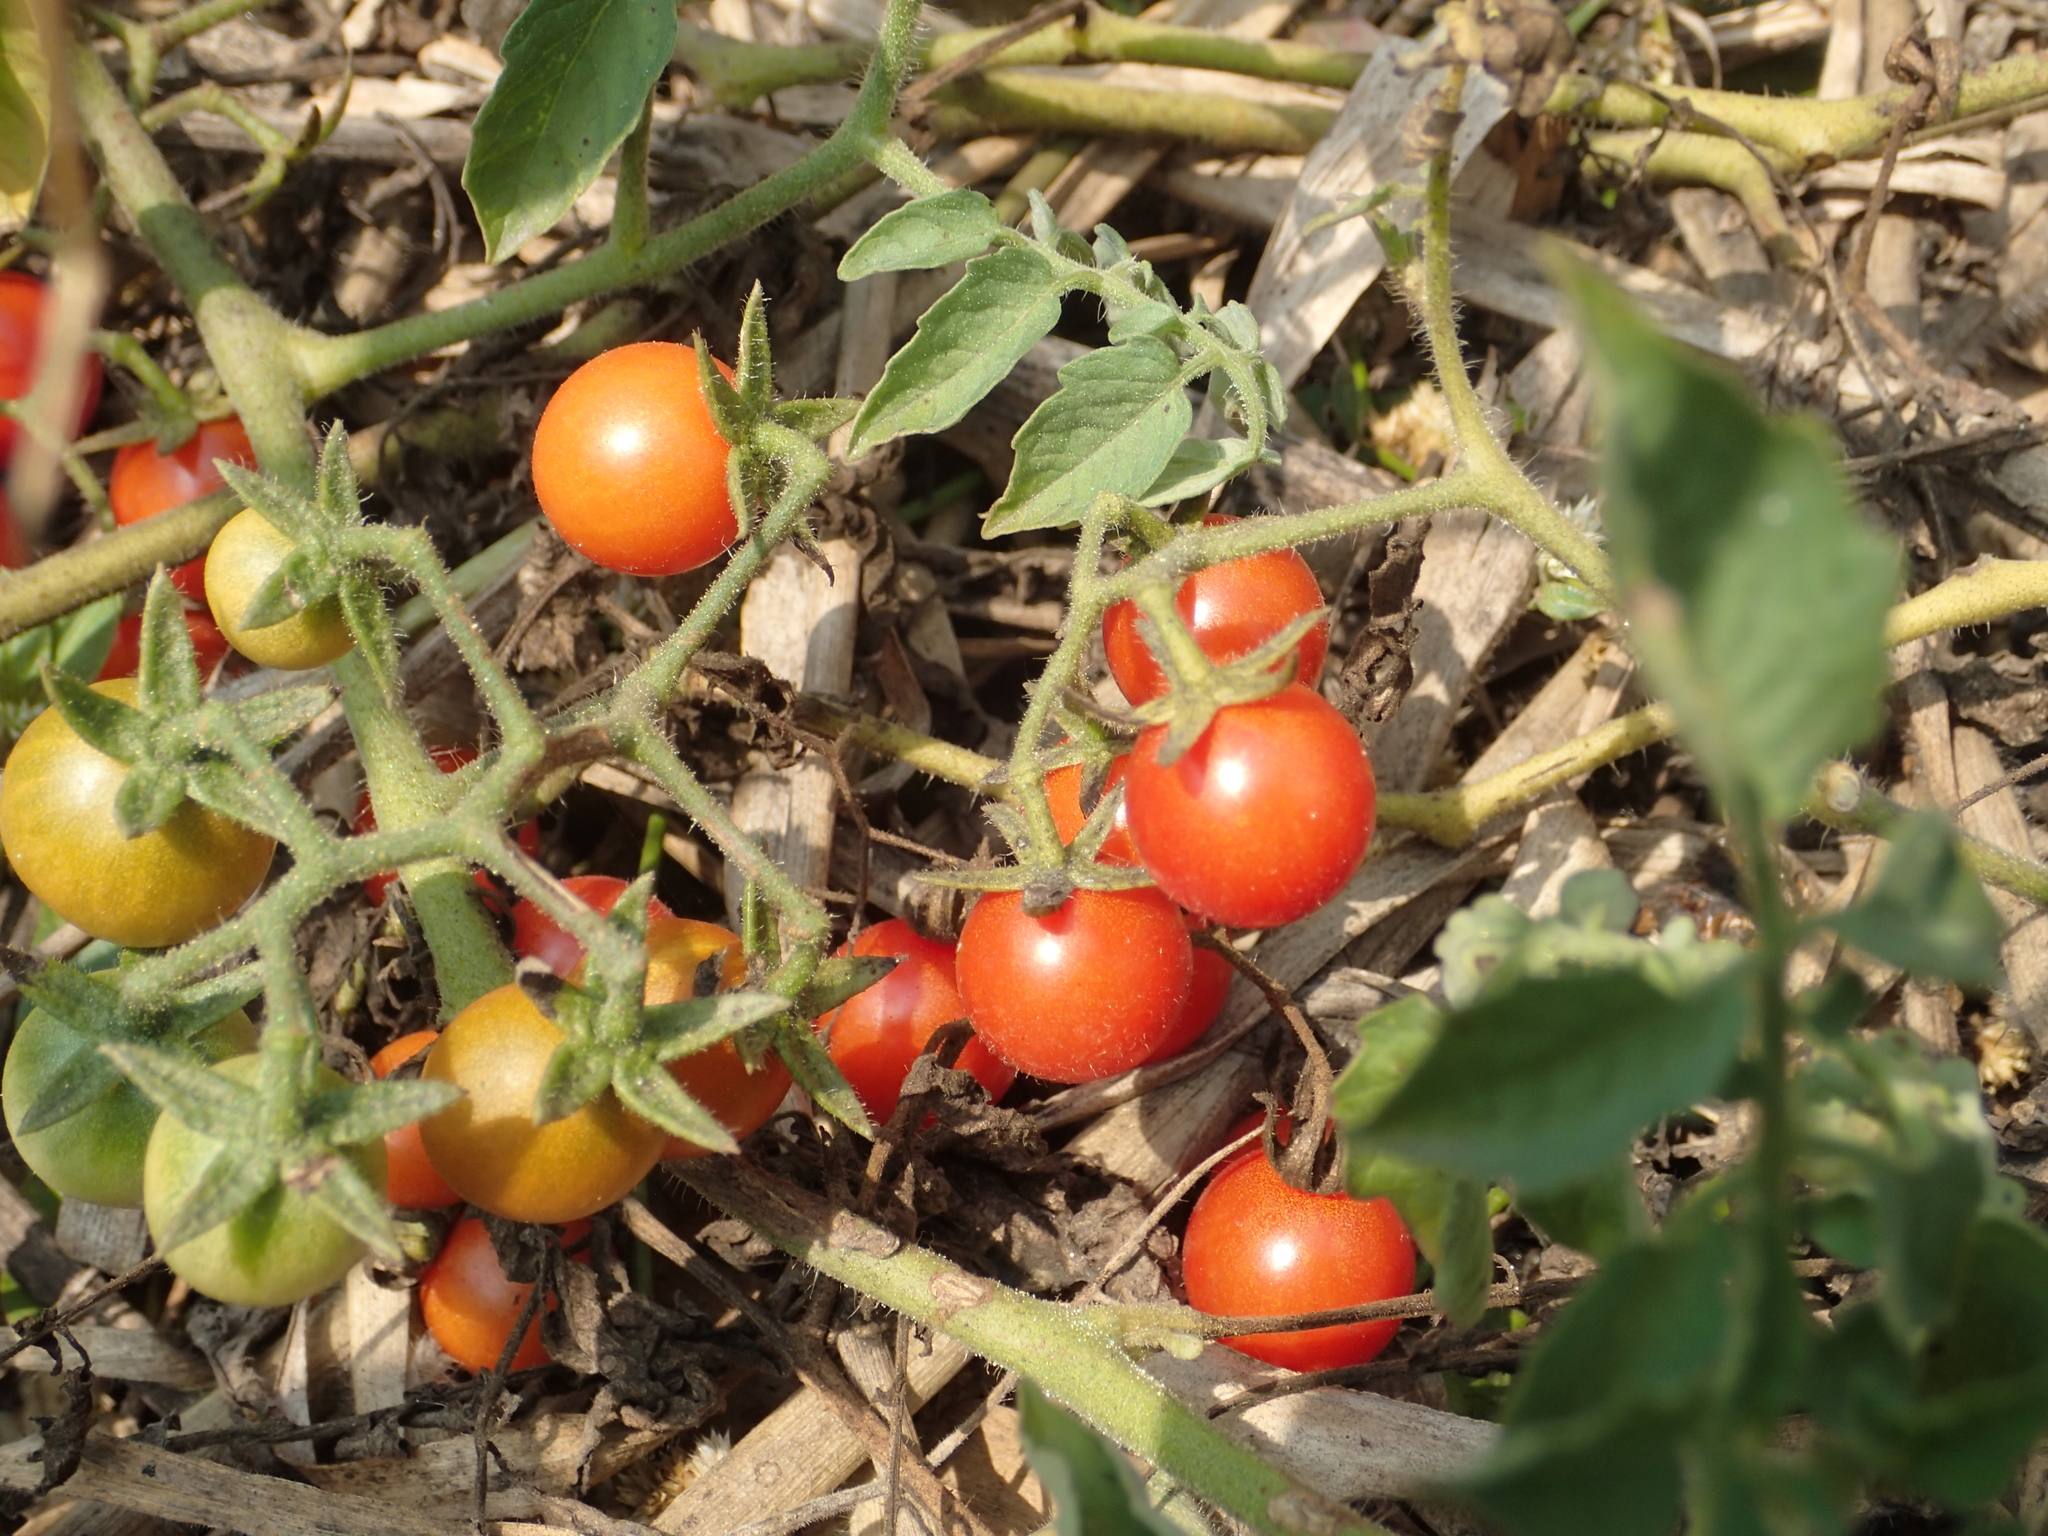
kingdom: Plantae
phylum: Tracheophyta
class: Magnoliopsida
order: Solanales
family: Solanaceae
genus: Solanum
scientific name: Solanum lycopersicum
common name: Garden tomato
